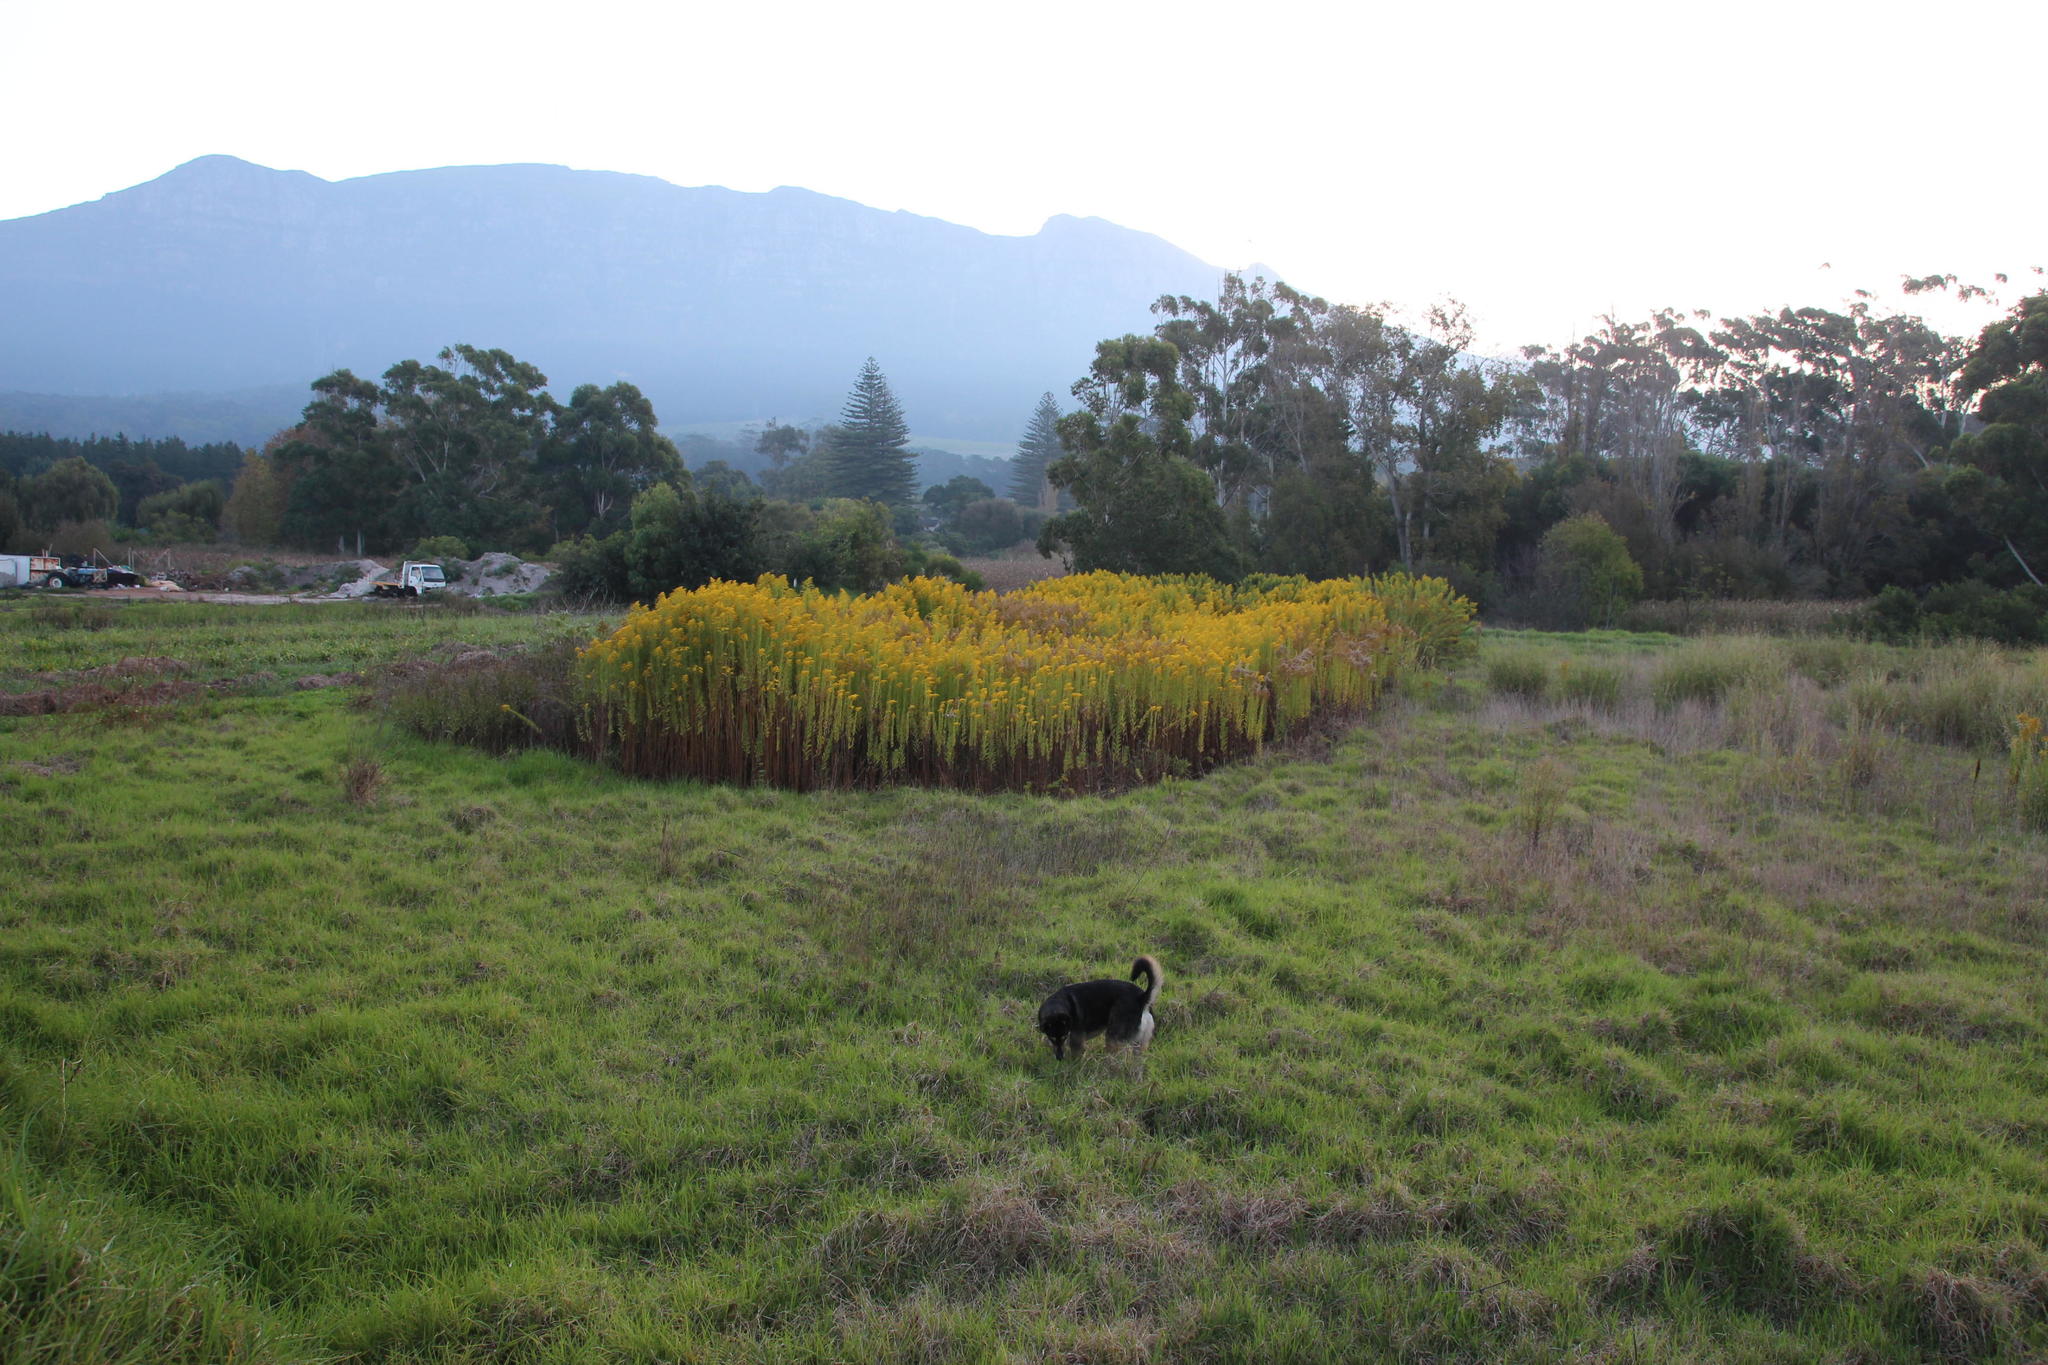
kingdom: Plantae
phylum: Tracheophyta
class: Magnoliopsida
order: Asterales
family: Asteraceae
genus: Solidago
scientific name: Solidago altissima
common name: Late goldenrod
